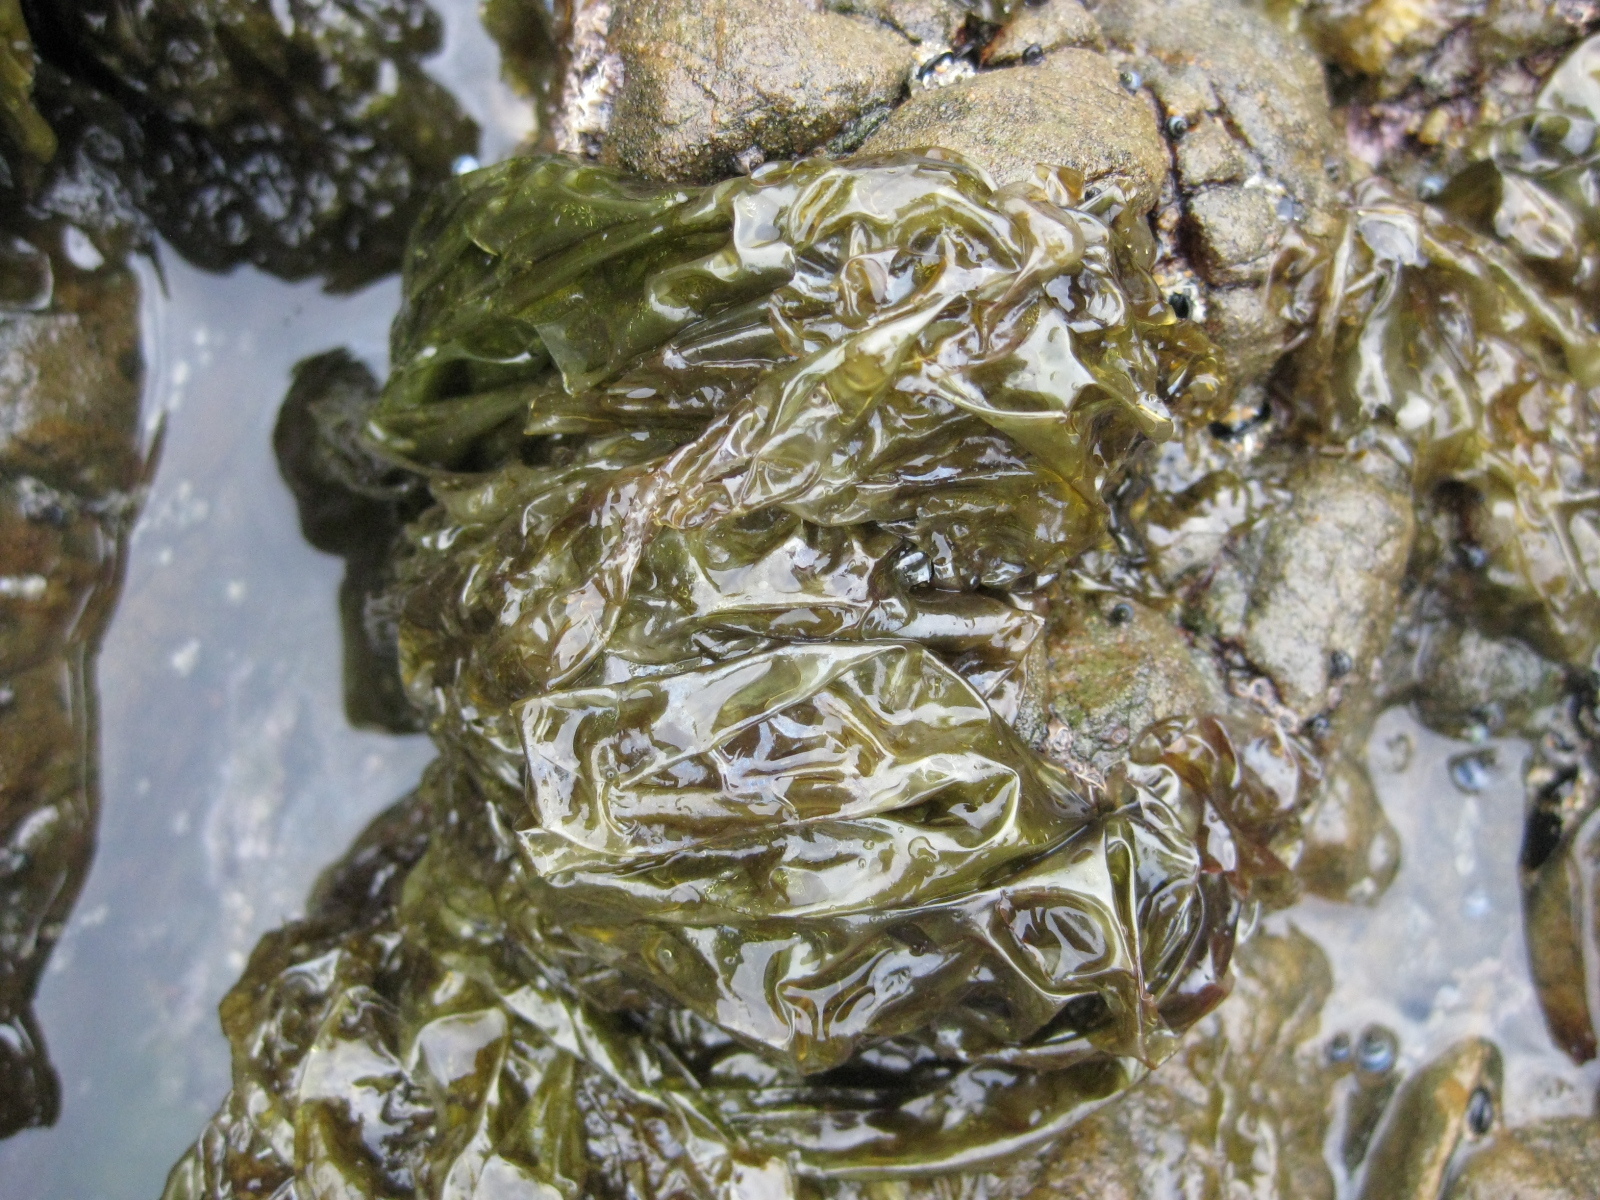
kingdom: Plantae
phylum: Rhodophyta
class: Bangiophyceae
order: Bangiales
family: Bangiaceae
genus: Clymene
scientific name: Clymene coleana
